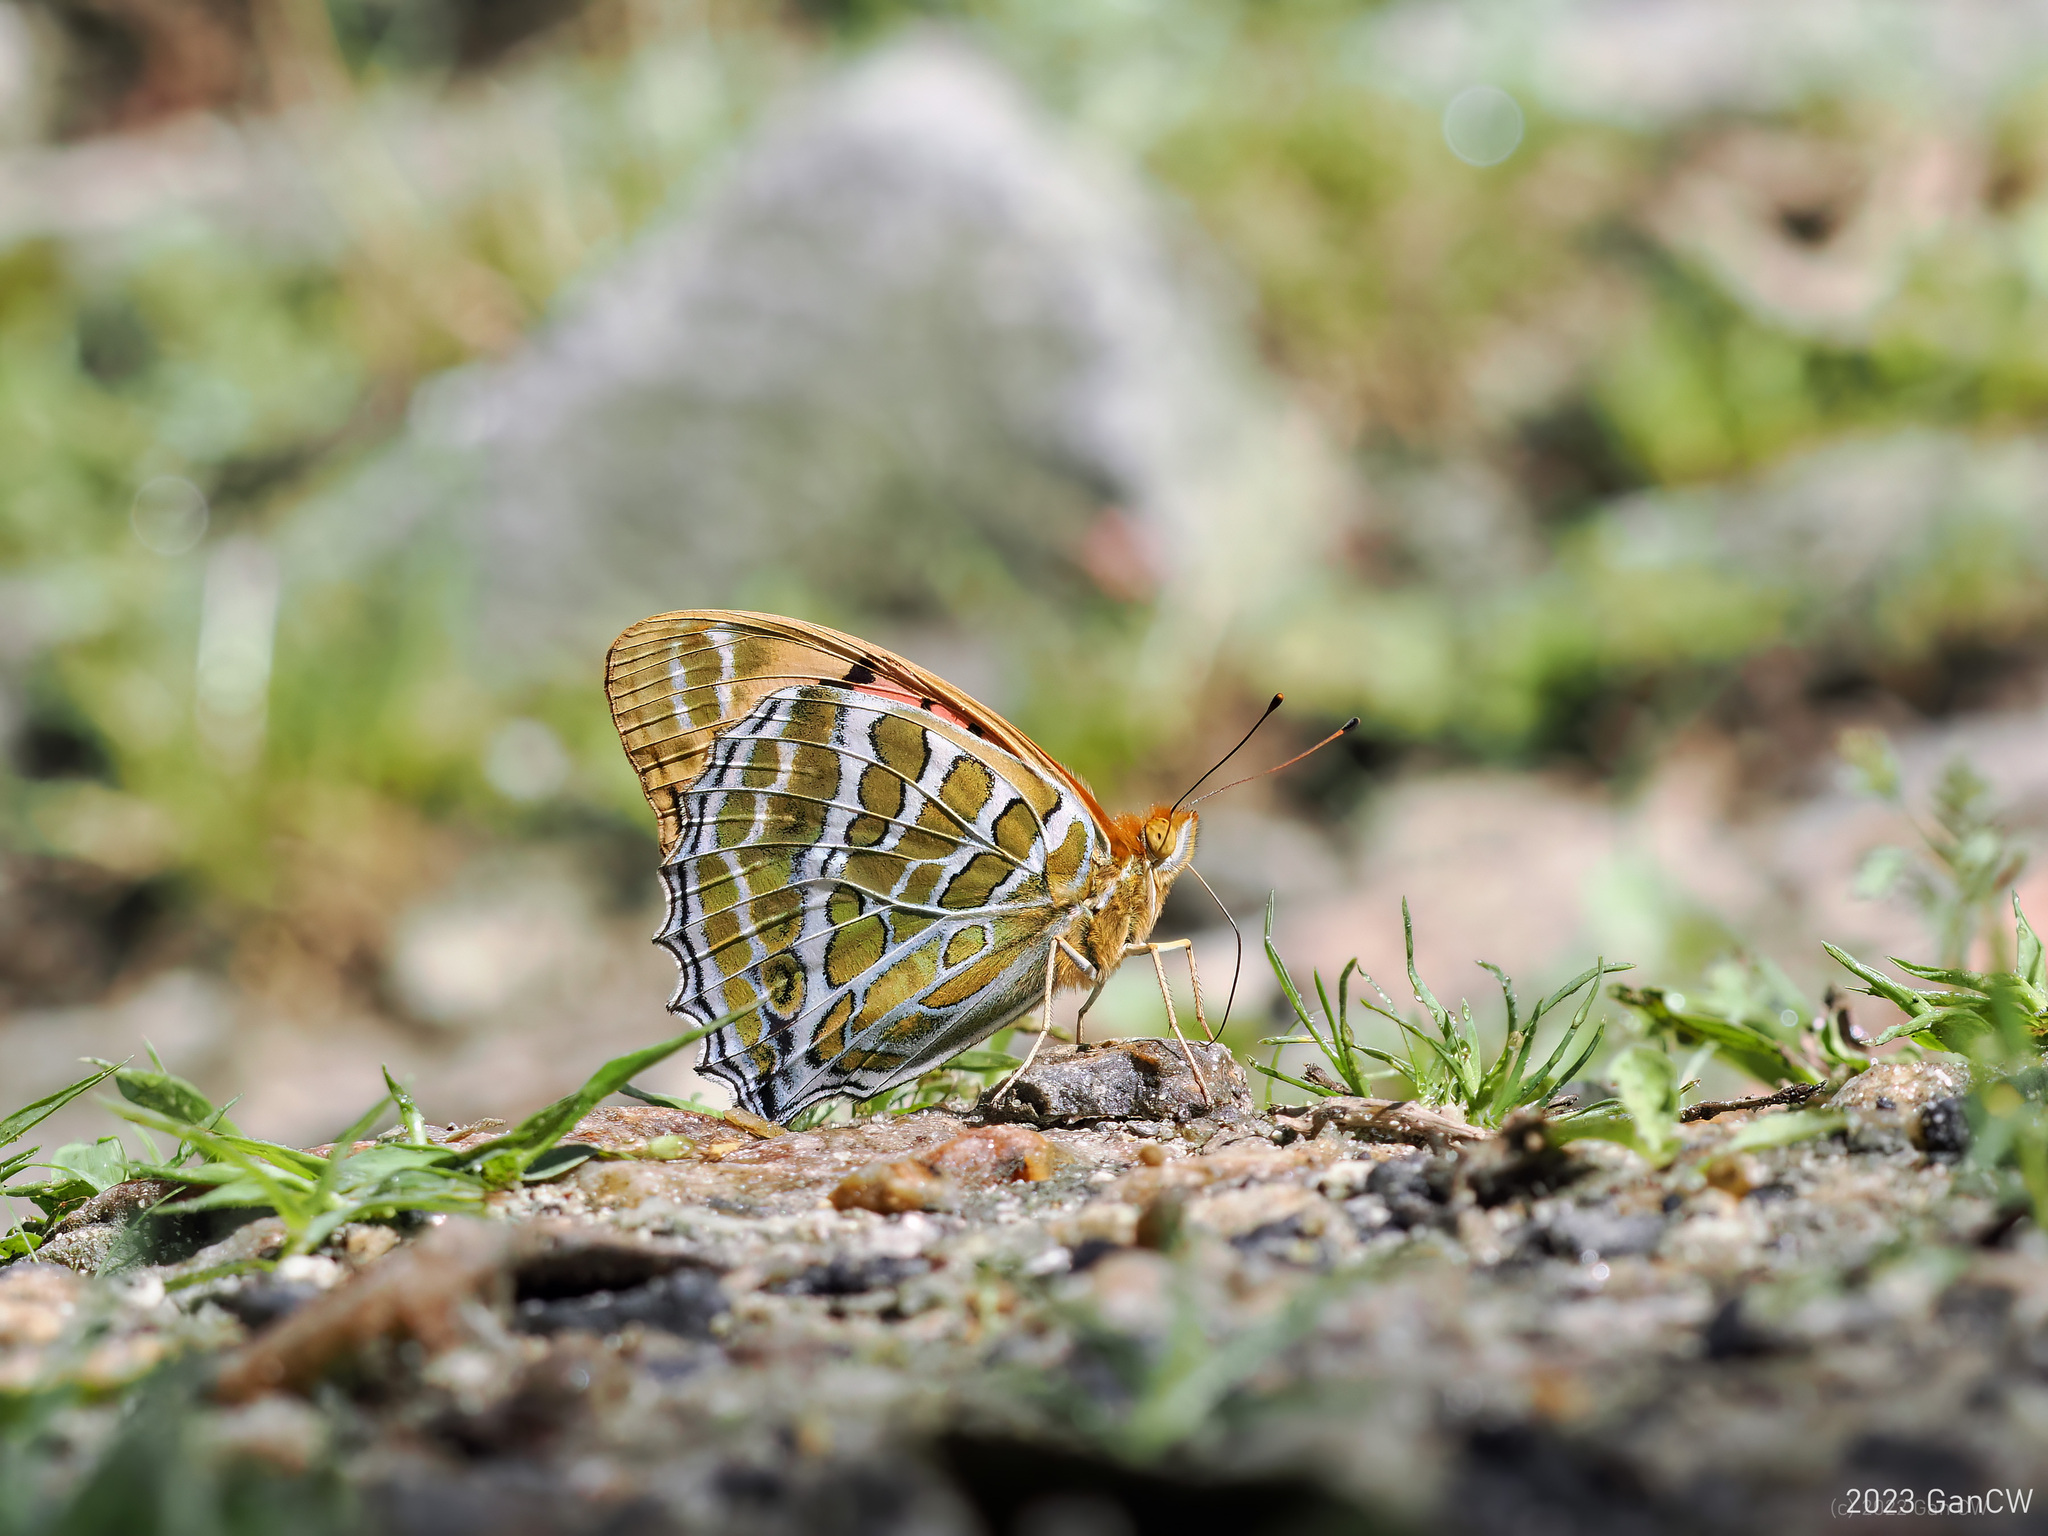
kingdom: Animalia
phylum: Arthropoda
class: Insecta
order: Lepidoptera
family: Nymphalidae
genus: Childrena
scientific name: Childrena childreni
